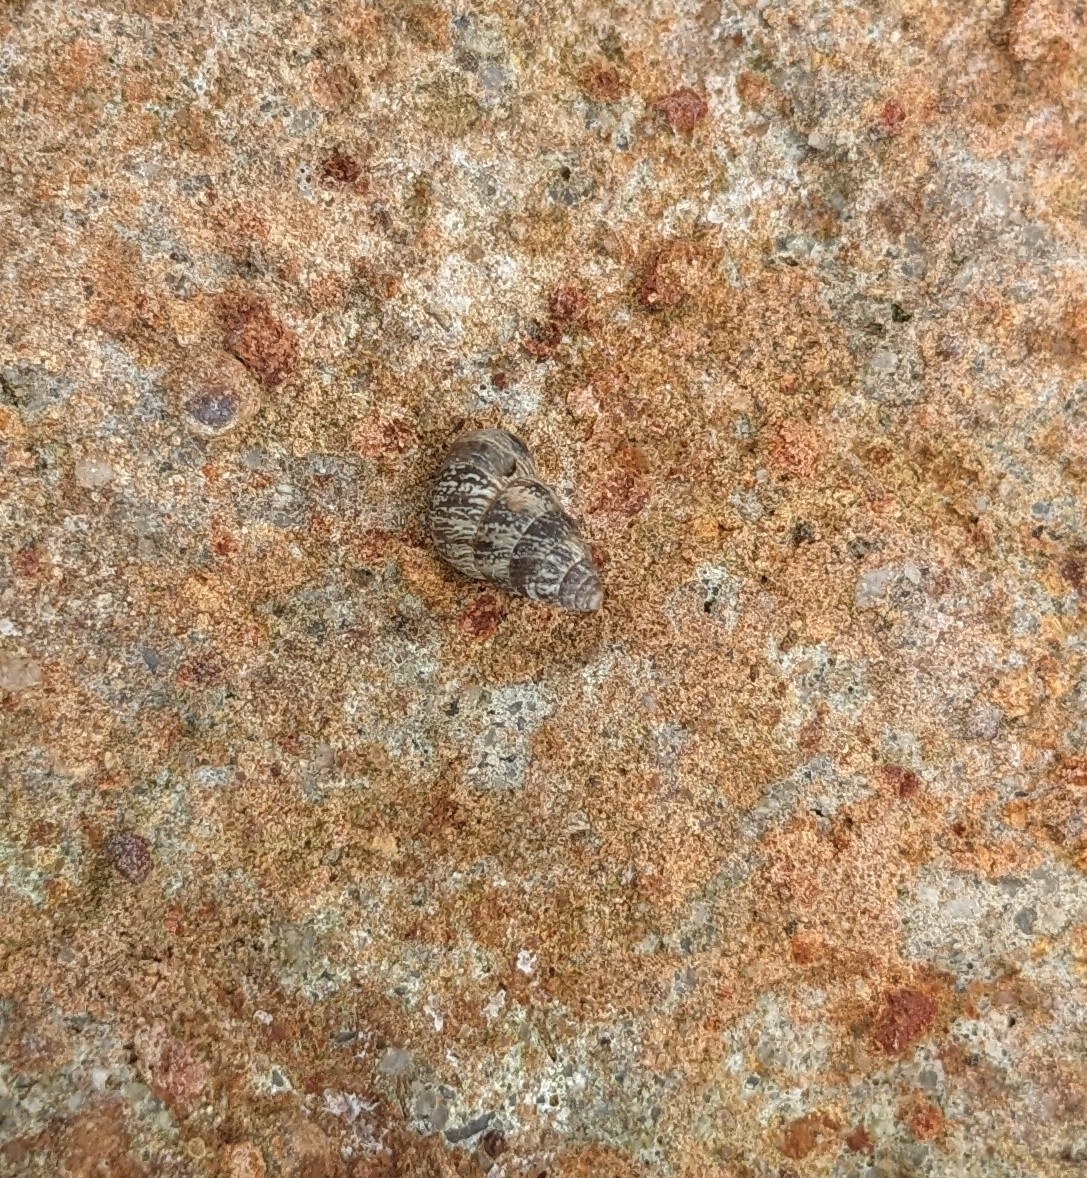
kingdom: Animalia
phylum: Mollusca
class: Gastropoda
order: Stylommatophora
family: Geomitridae
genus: Cochlicella
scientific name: Cochlicella barbara
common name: Potbellied helicellid
